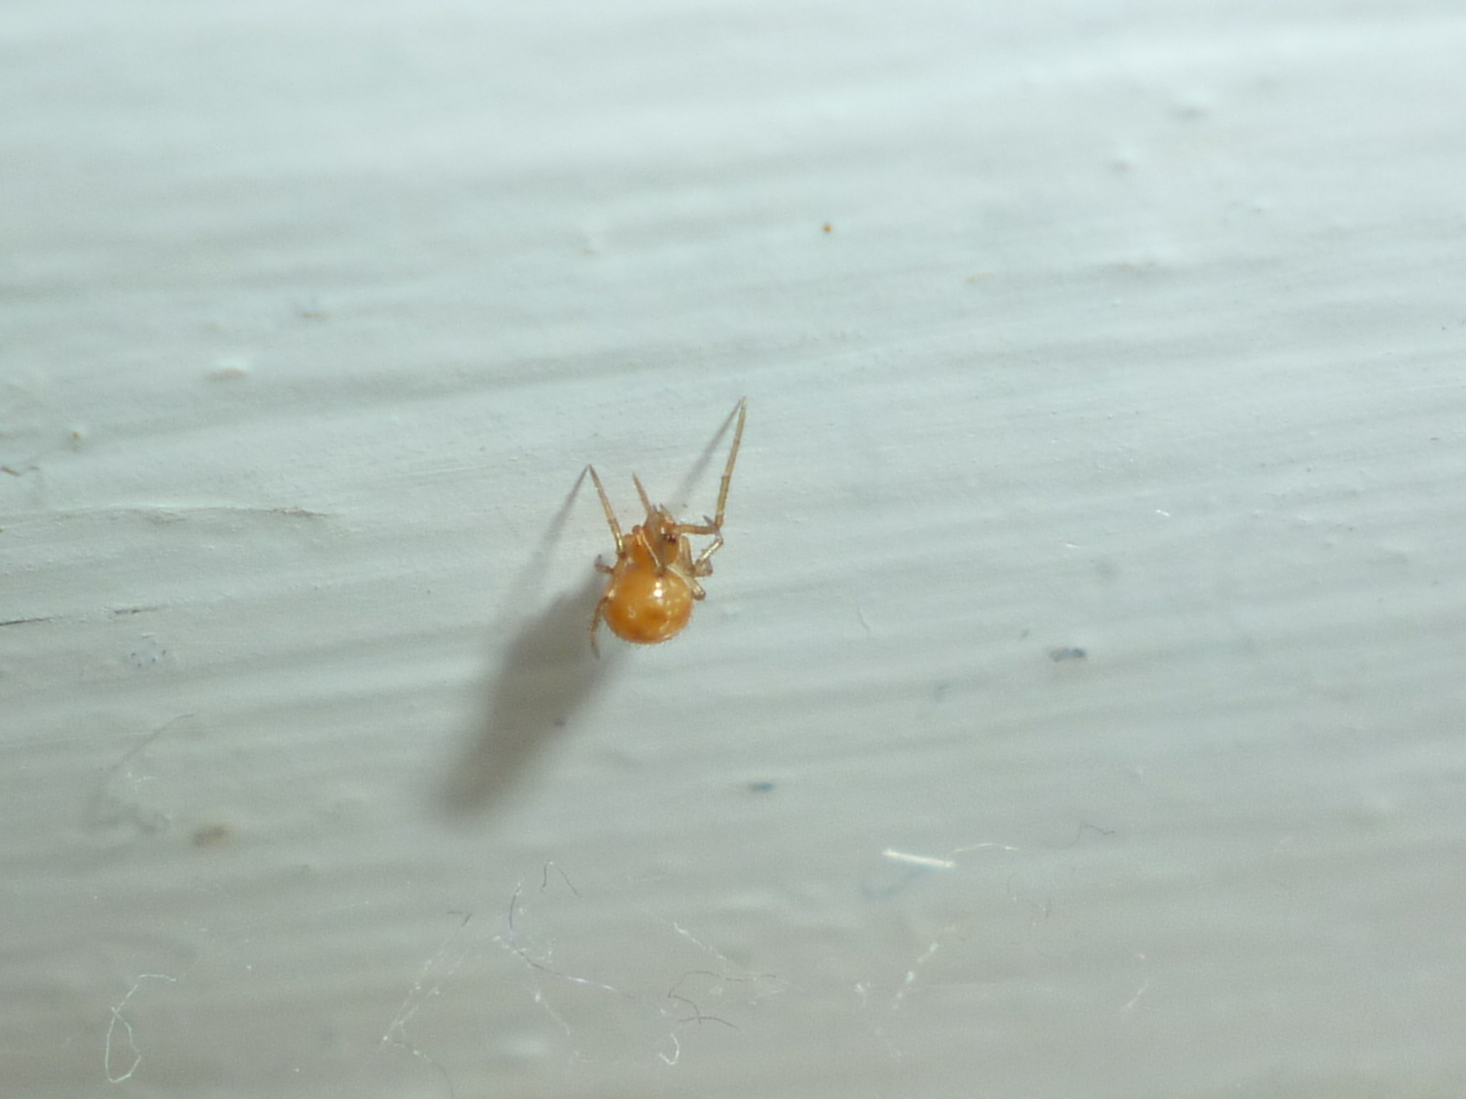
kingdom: Animalia
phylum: Arthropoda
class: Arachnida
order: Araneae
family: Theridiidae
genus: Steatoda
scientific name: Steatoda triangulosa
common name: Triangulate bud spider
